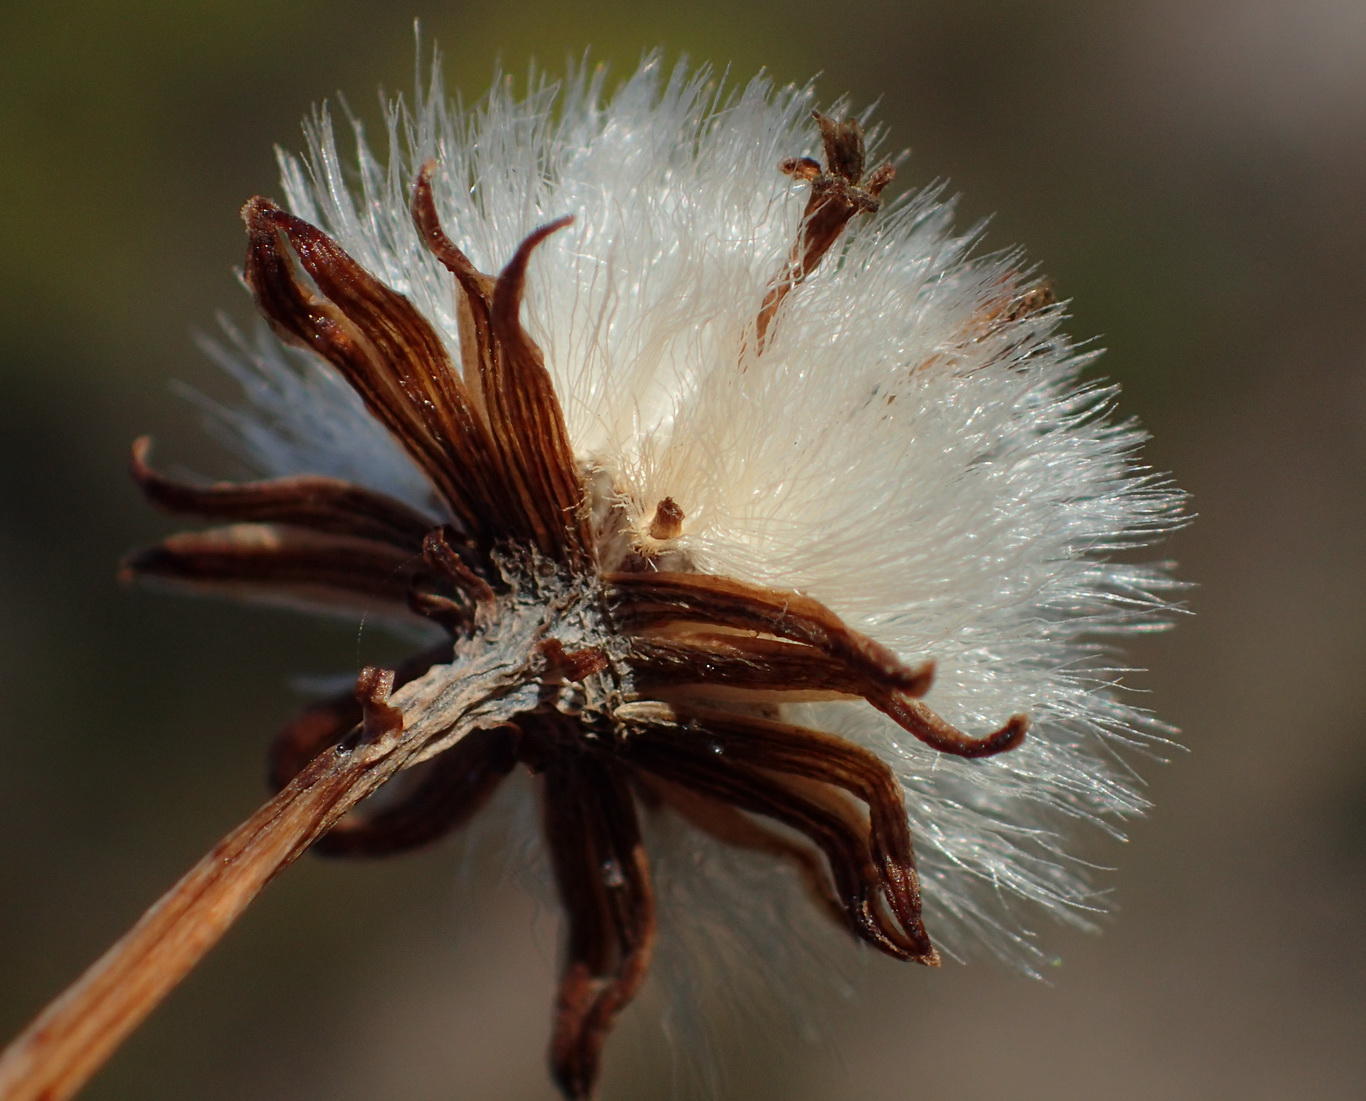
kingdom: Plantae
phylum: Tracheophyta
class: Magnoliopsida
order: Asterales
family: Asteraceae
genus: Curio
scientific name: Curio archeri
